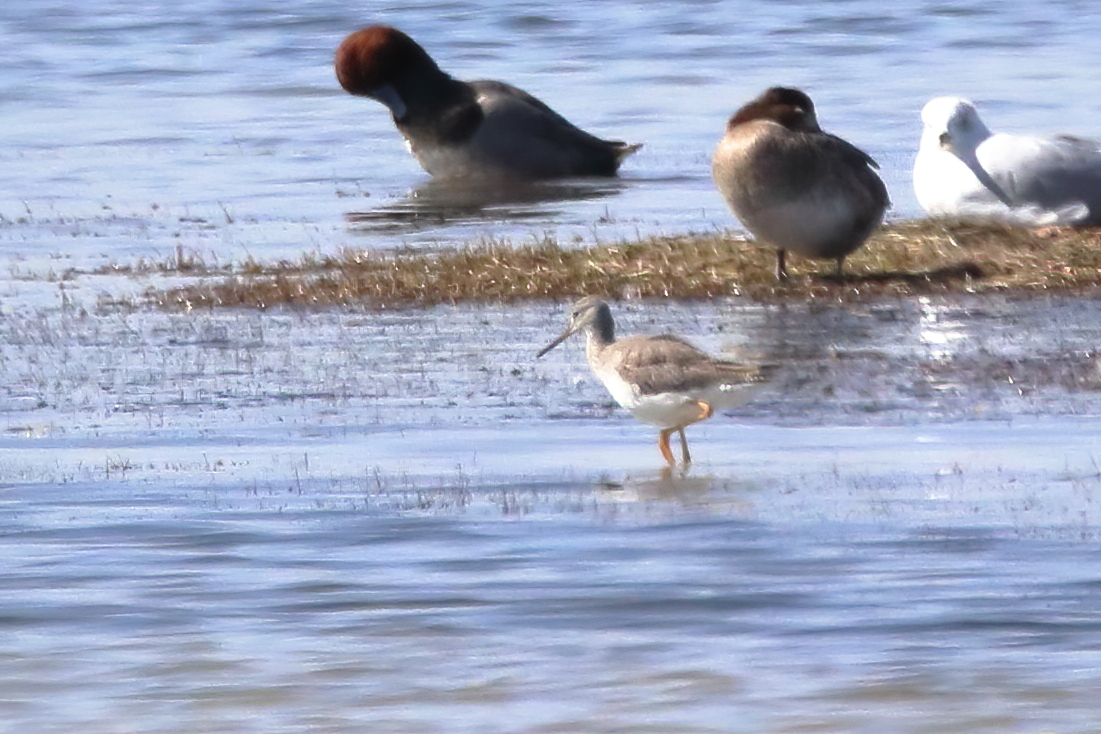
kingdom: Animalia
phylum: Chordata
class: Aves
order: Charadriiformes
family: Scolopacidae
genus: Tringa
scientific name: Tringa melanoleuca
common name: Greater yellowlegs
